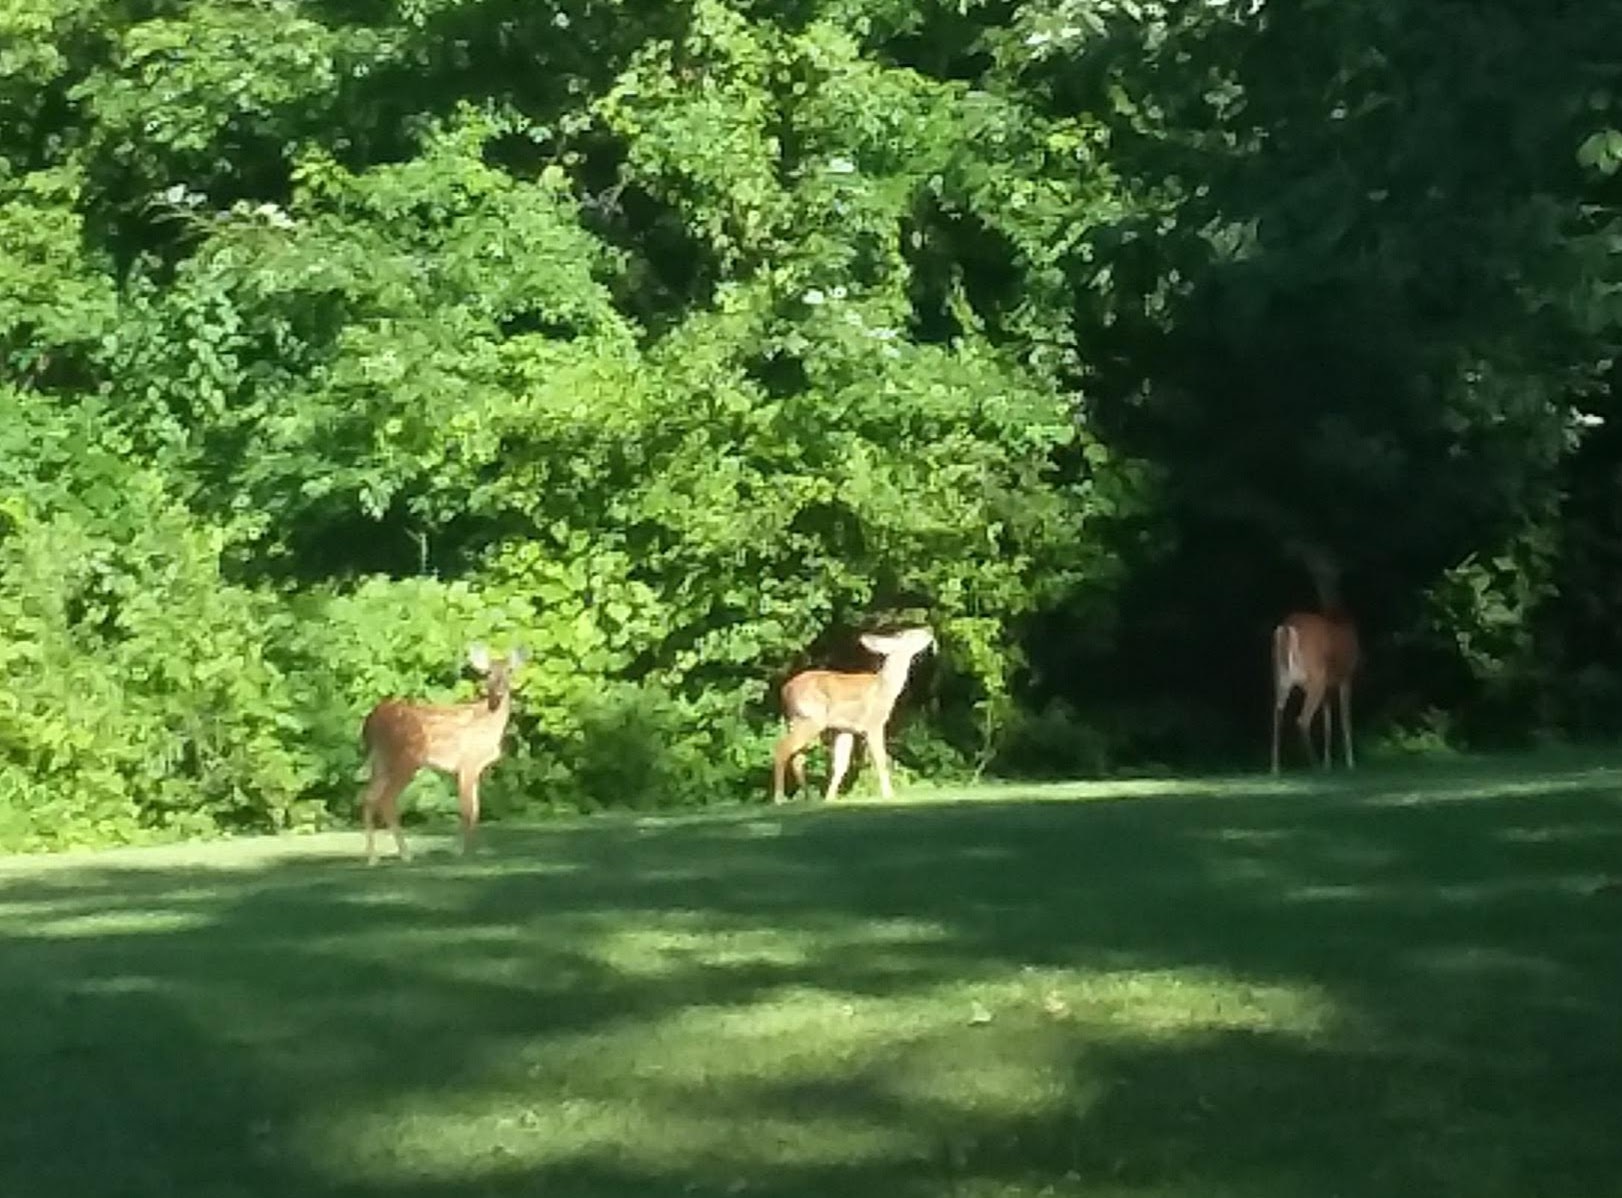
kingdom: Animalia
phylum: Chordata
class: Mammalia
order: Artiodactyla
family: Cervidae
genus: Odocoileus
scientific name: Odocoileus virginianus
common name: White-tailed deer
